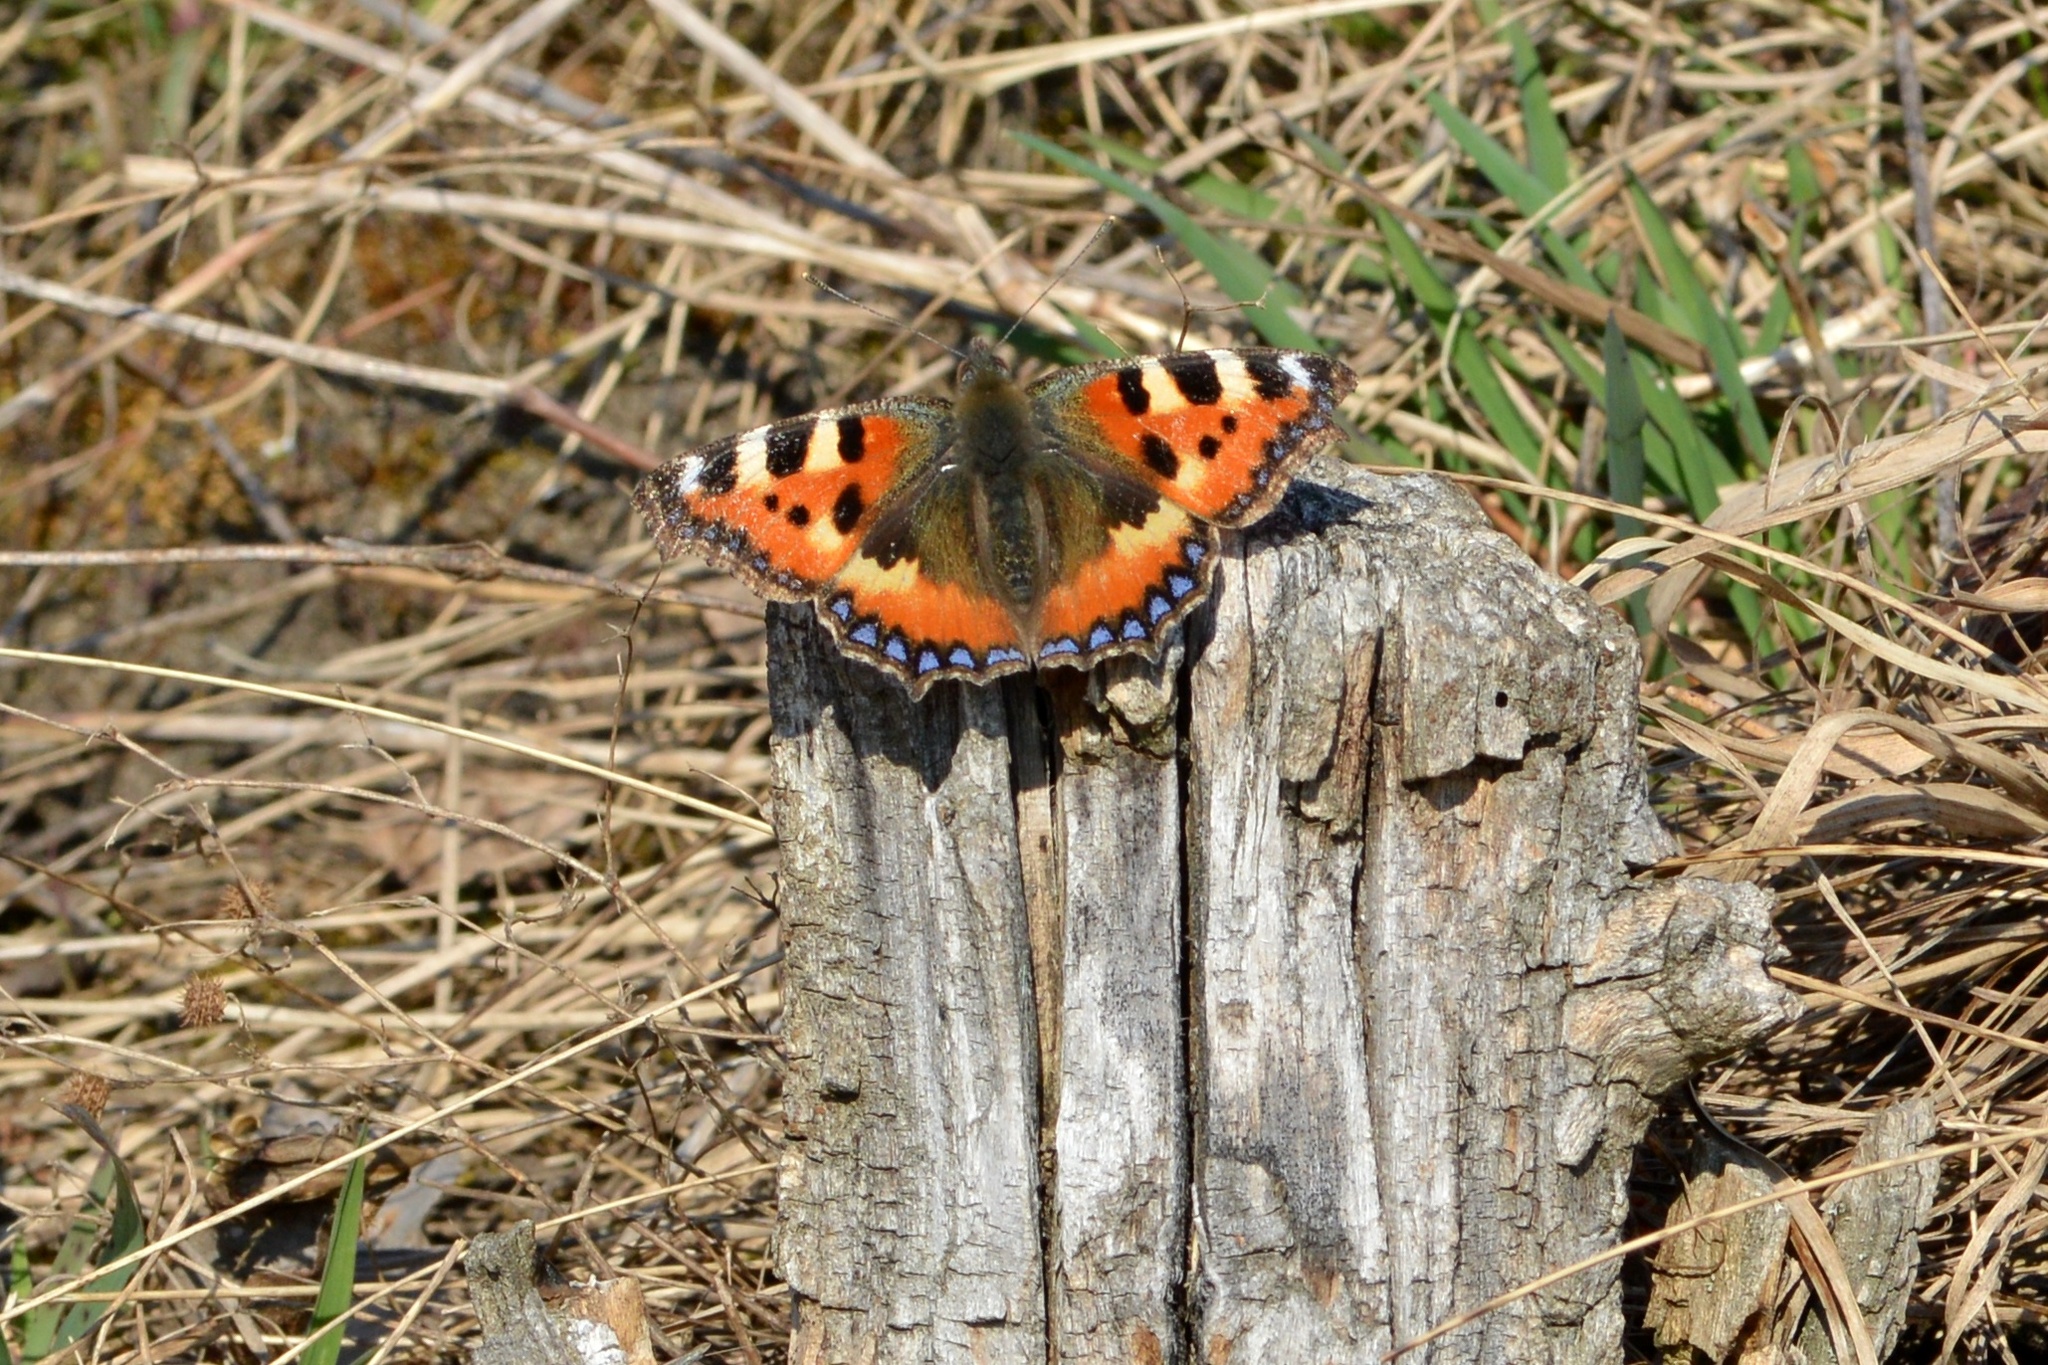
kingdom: Animalia
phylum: Arthropoda
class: Insecta
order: Lepidoptera
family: Nymphalidae
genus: Aglais
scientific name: Aglais urticae
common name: Small tortoiseshell
